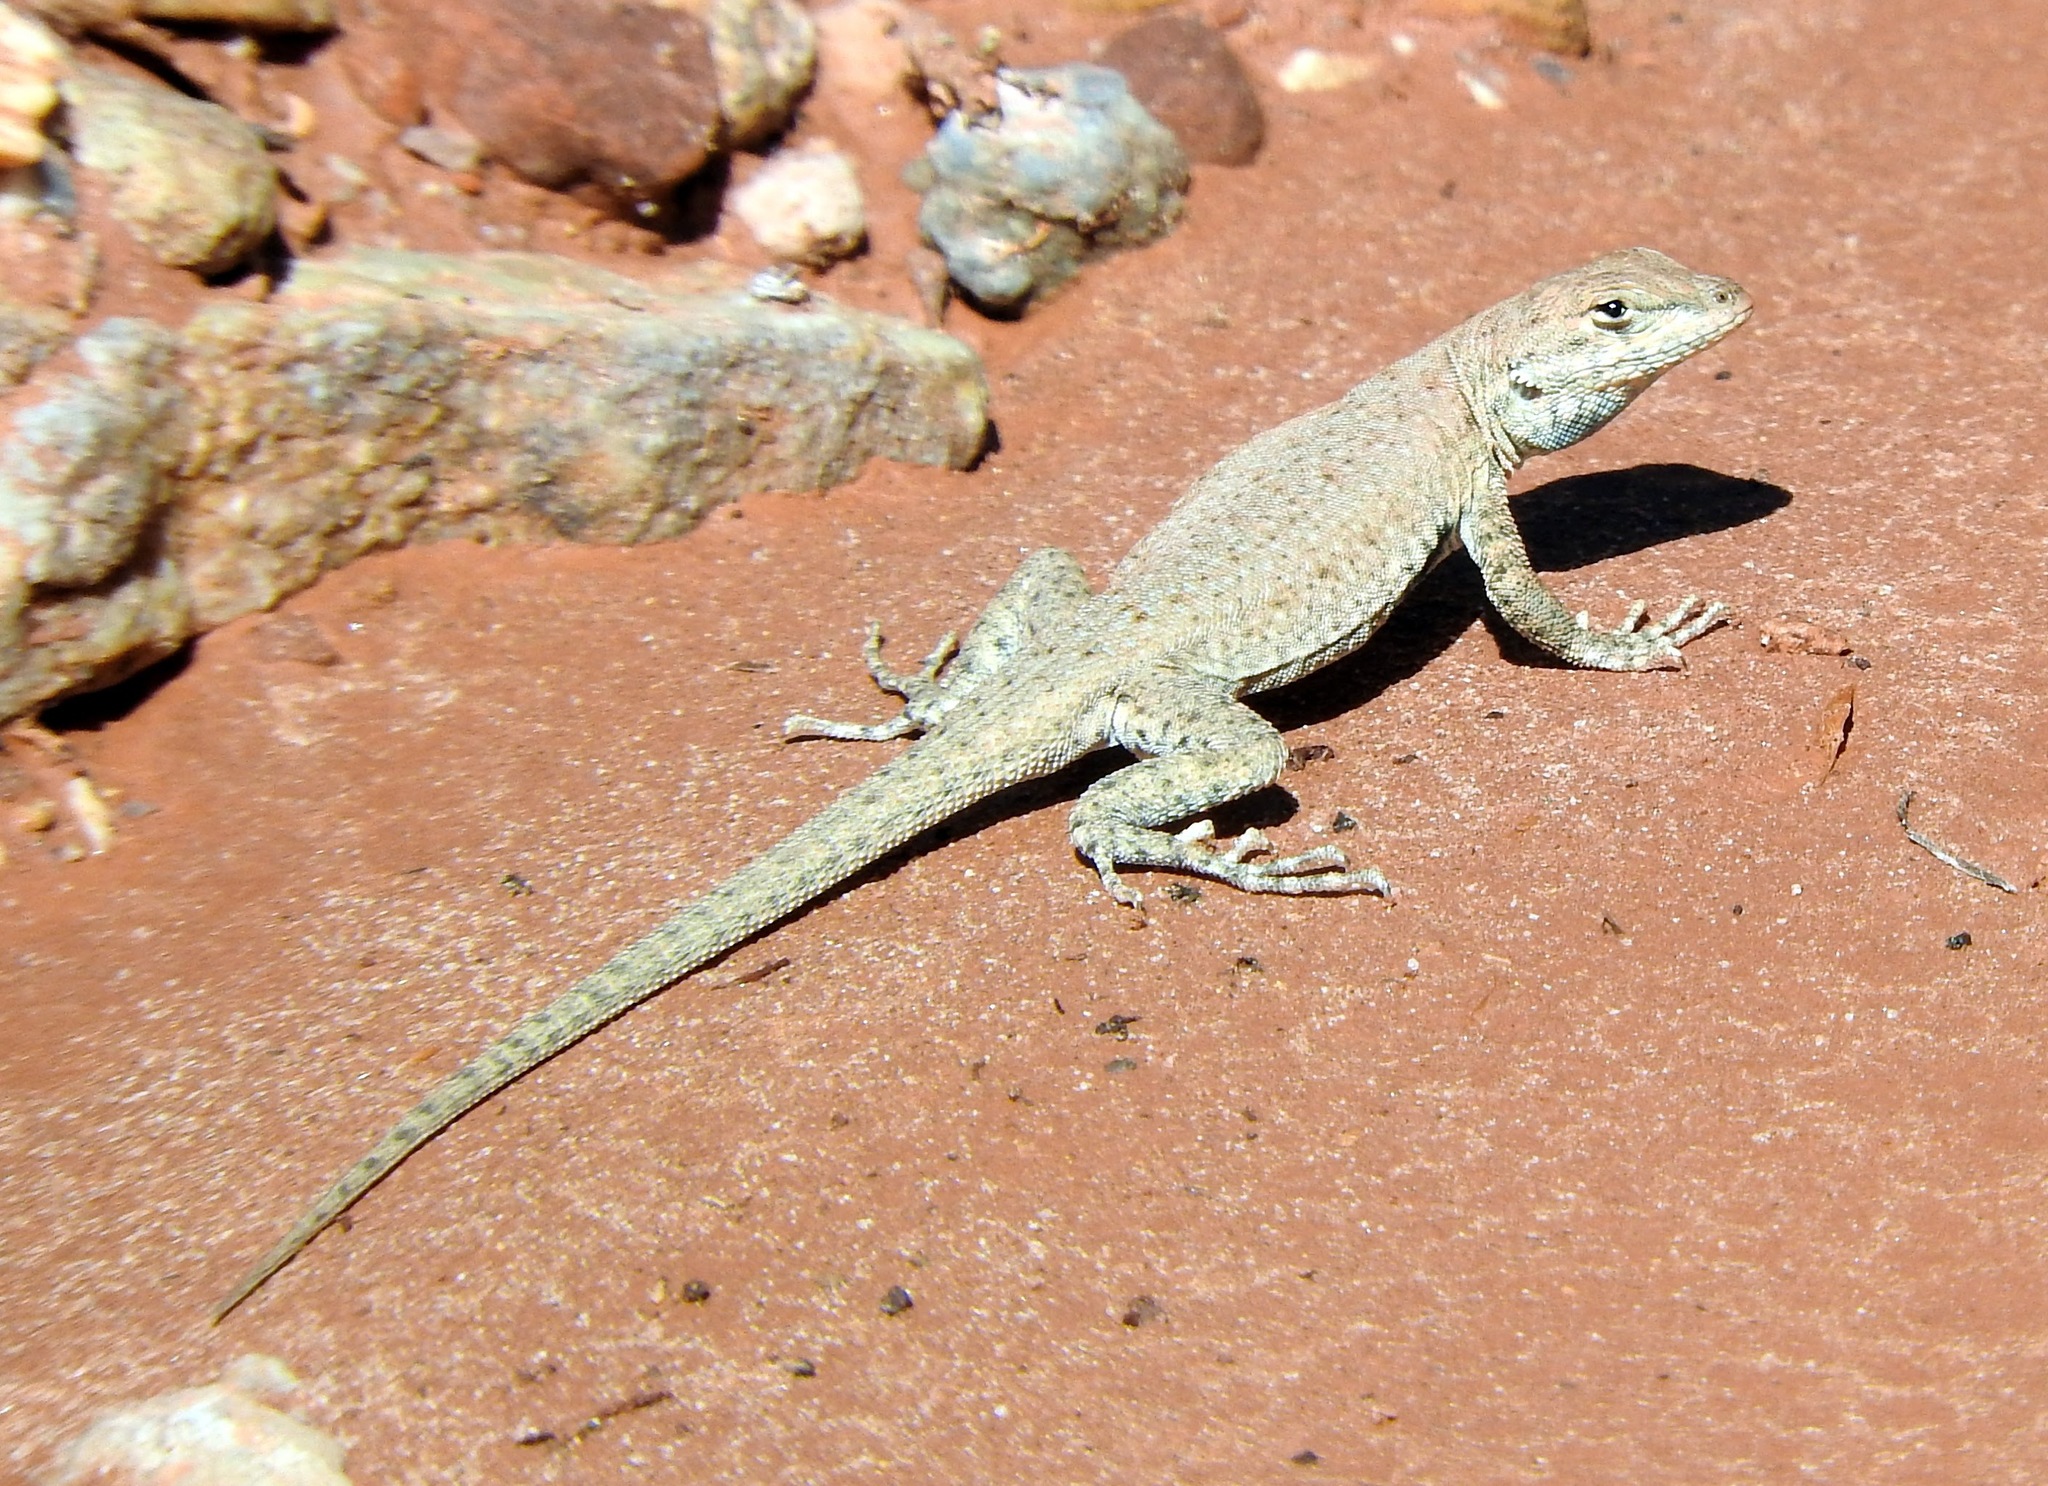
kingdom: Animalia
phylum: Chordata
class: Squamata
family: Phrynosomatidae
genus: Uta
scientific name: Uta stansburiana
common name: Side-blotched lizard
